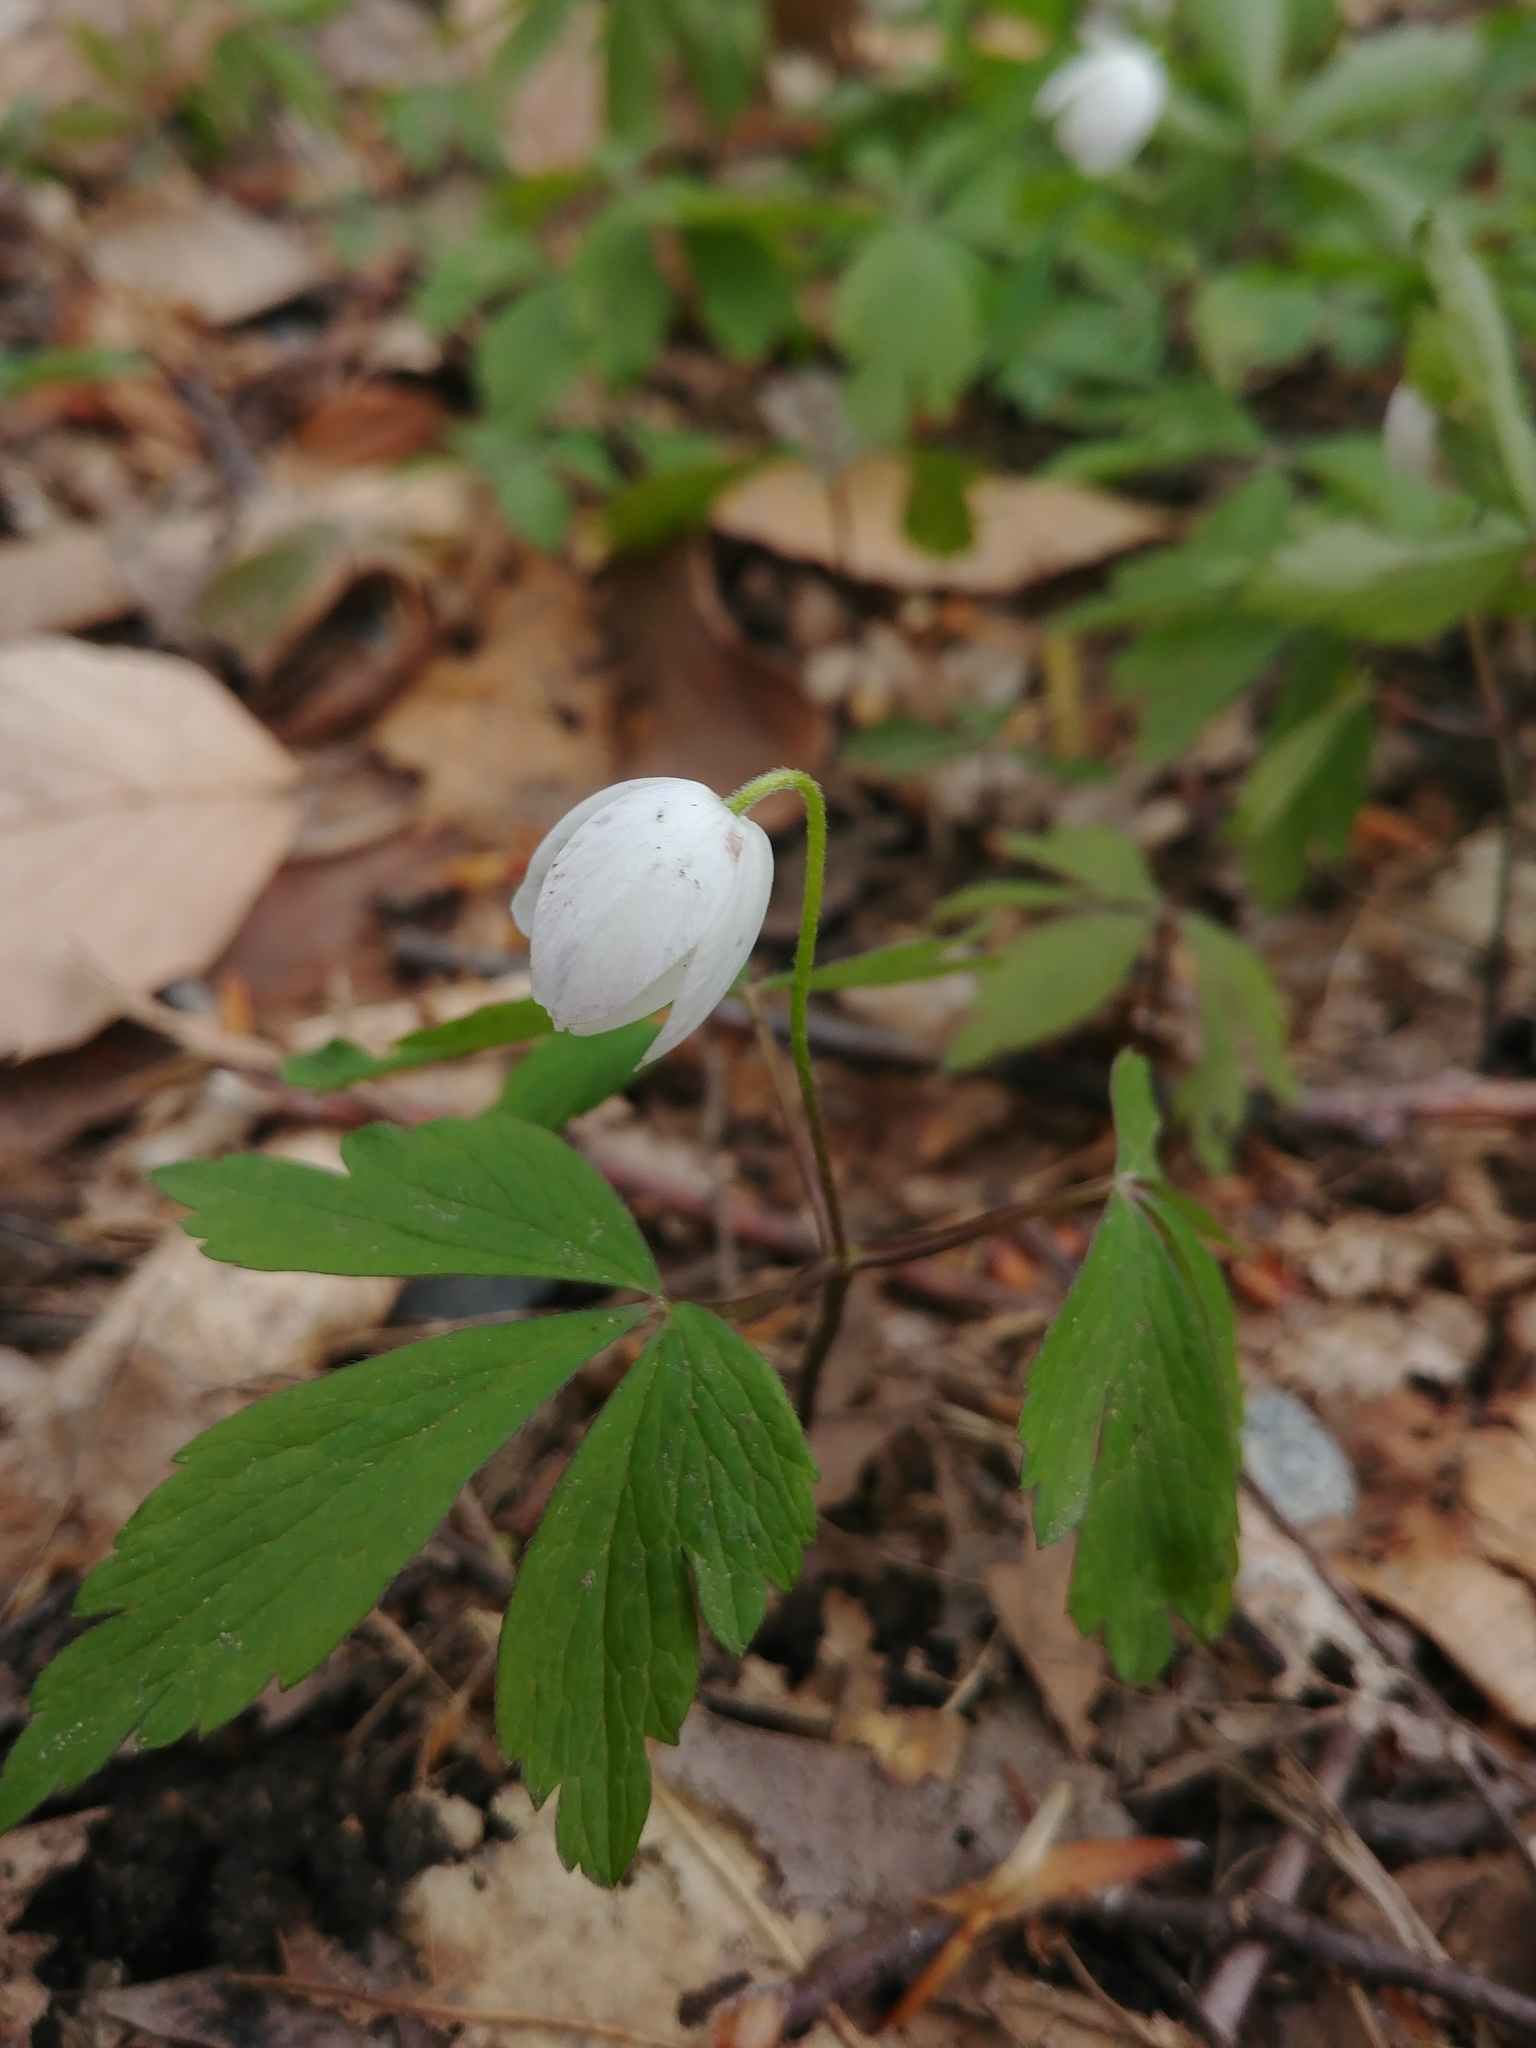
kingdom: Plantae
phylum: Tracheophyta
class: Magnoliopsida
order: Ranunculales
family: Ranunculaceae
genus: Anemone
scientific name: Anemone quinquefolia
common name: Wood anemone
